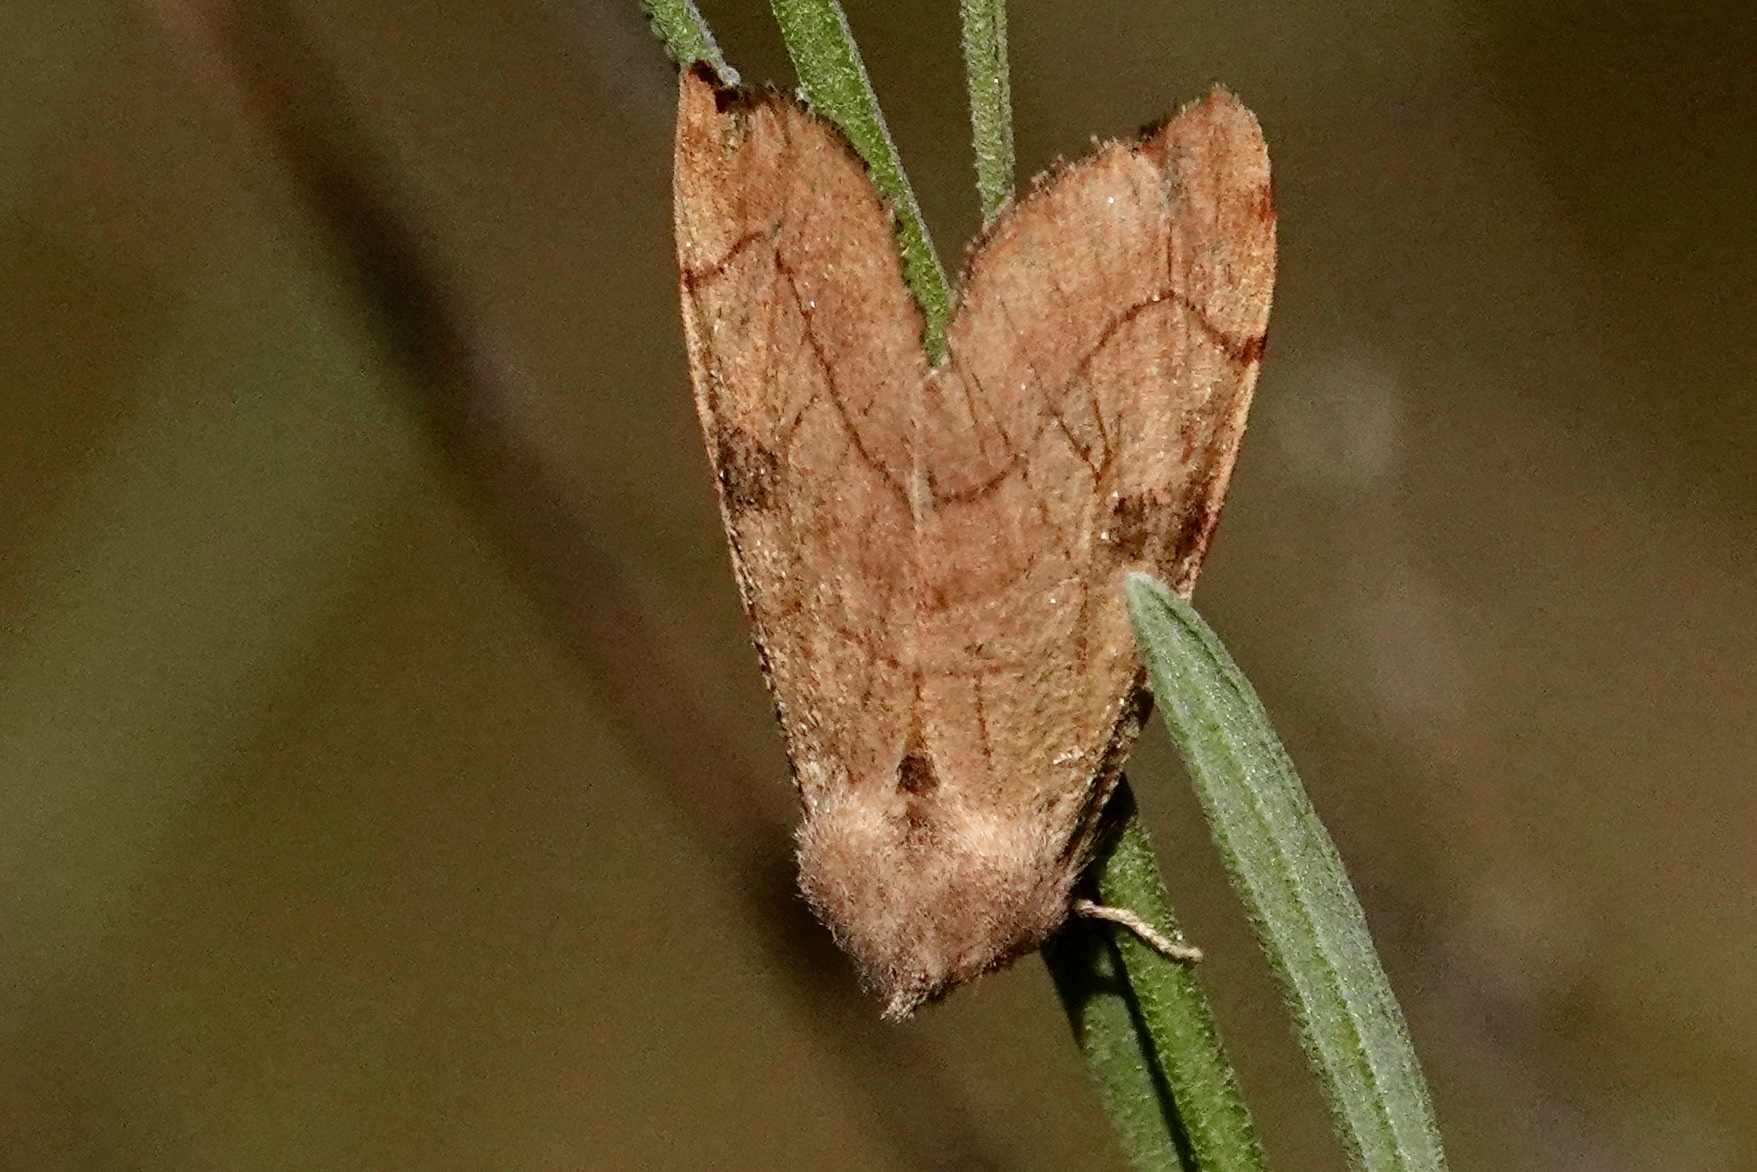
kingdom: Animalia
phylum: Arthropoda
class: Insecta
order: Lepidoptera
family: Noctuidae
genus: Choephora
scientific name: Choephora fungorum
